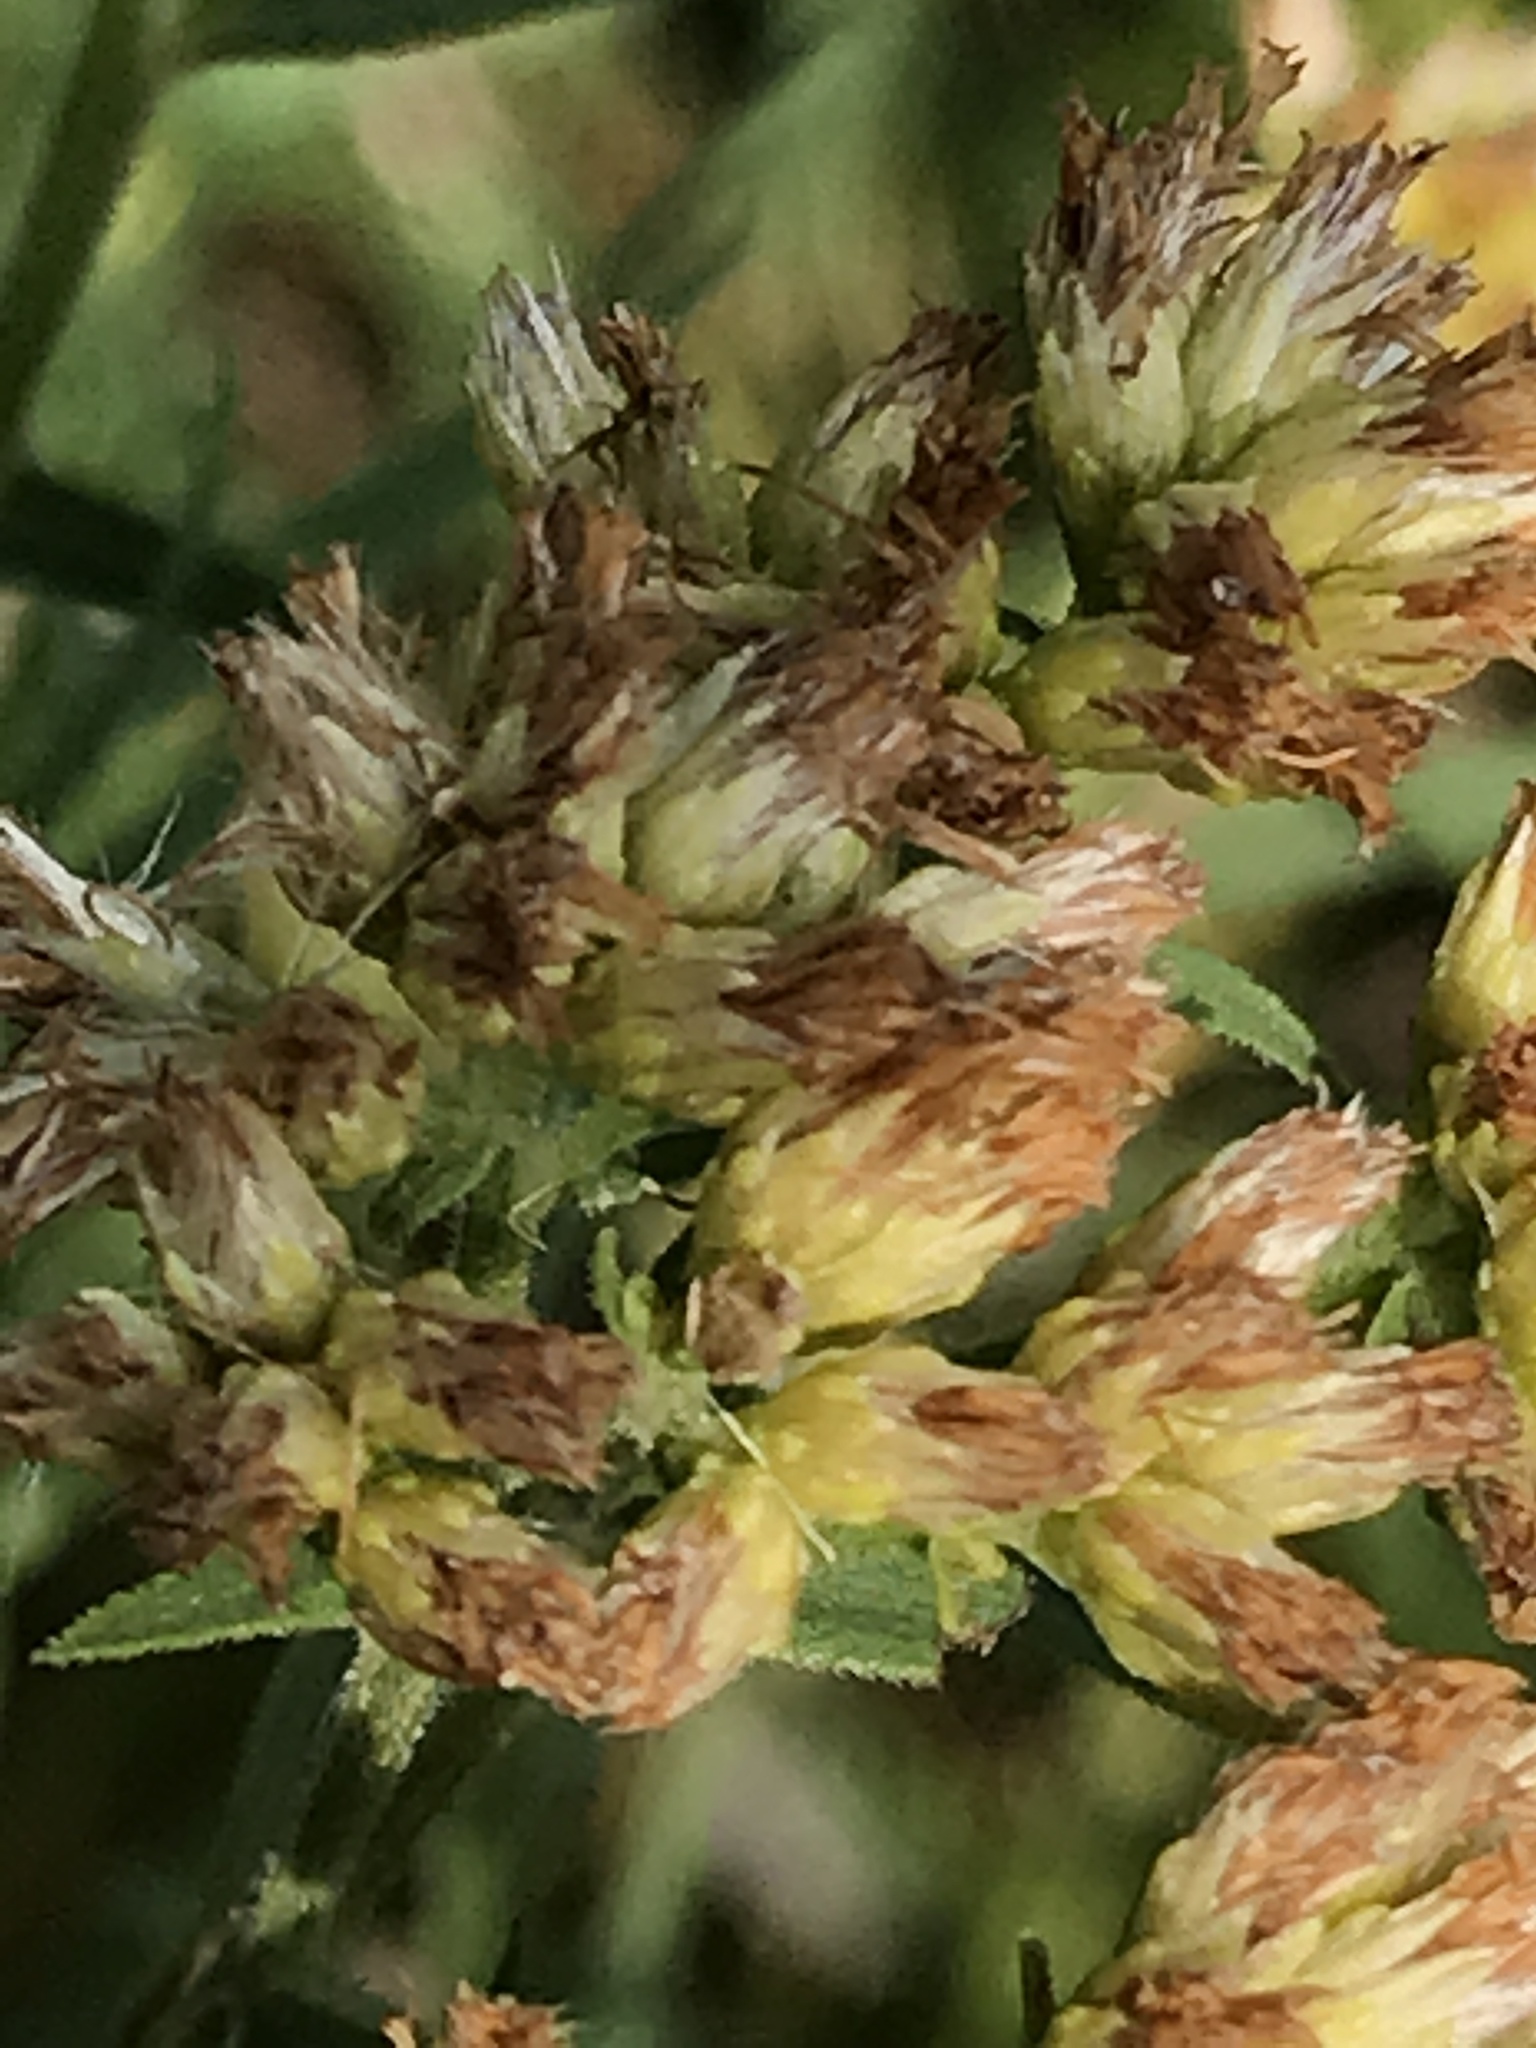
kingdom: Plantae
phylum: Tracheophyta
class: Magnoliopsida
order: Asterales
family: Asteraceae
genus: Euthamia
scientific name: Euthamia graminifolia
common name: Common goldentop
